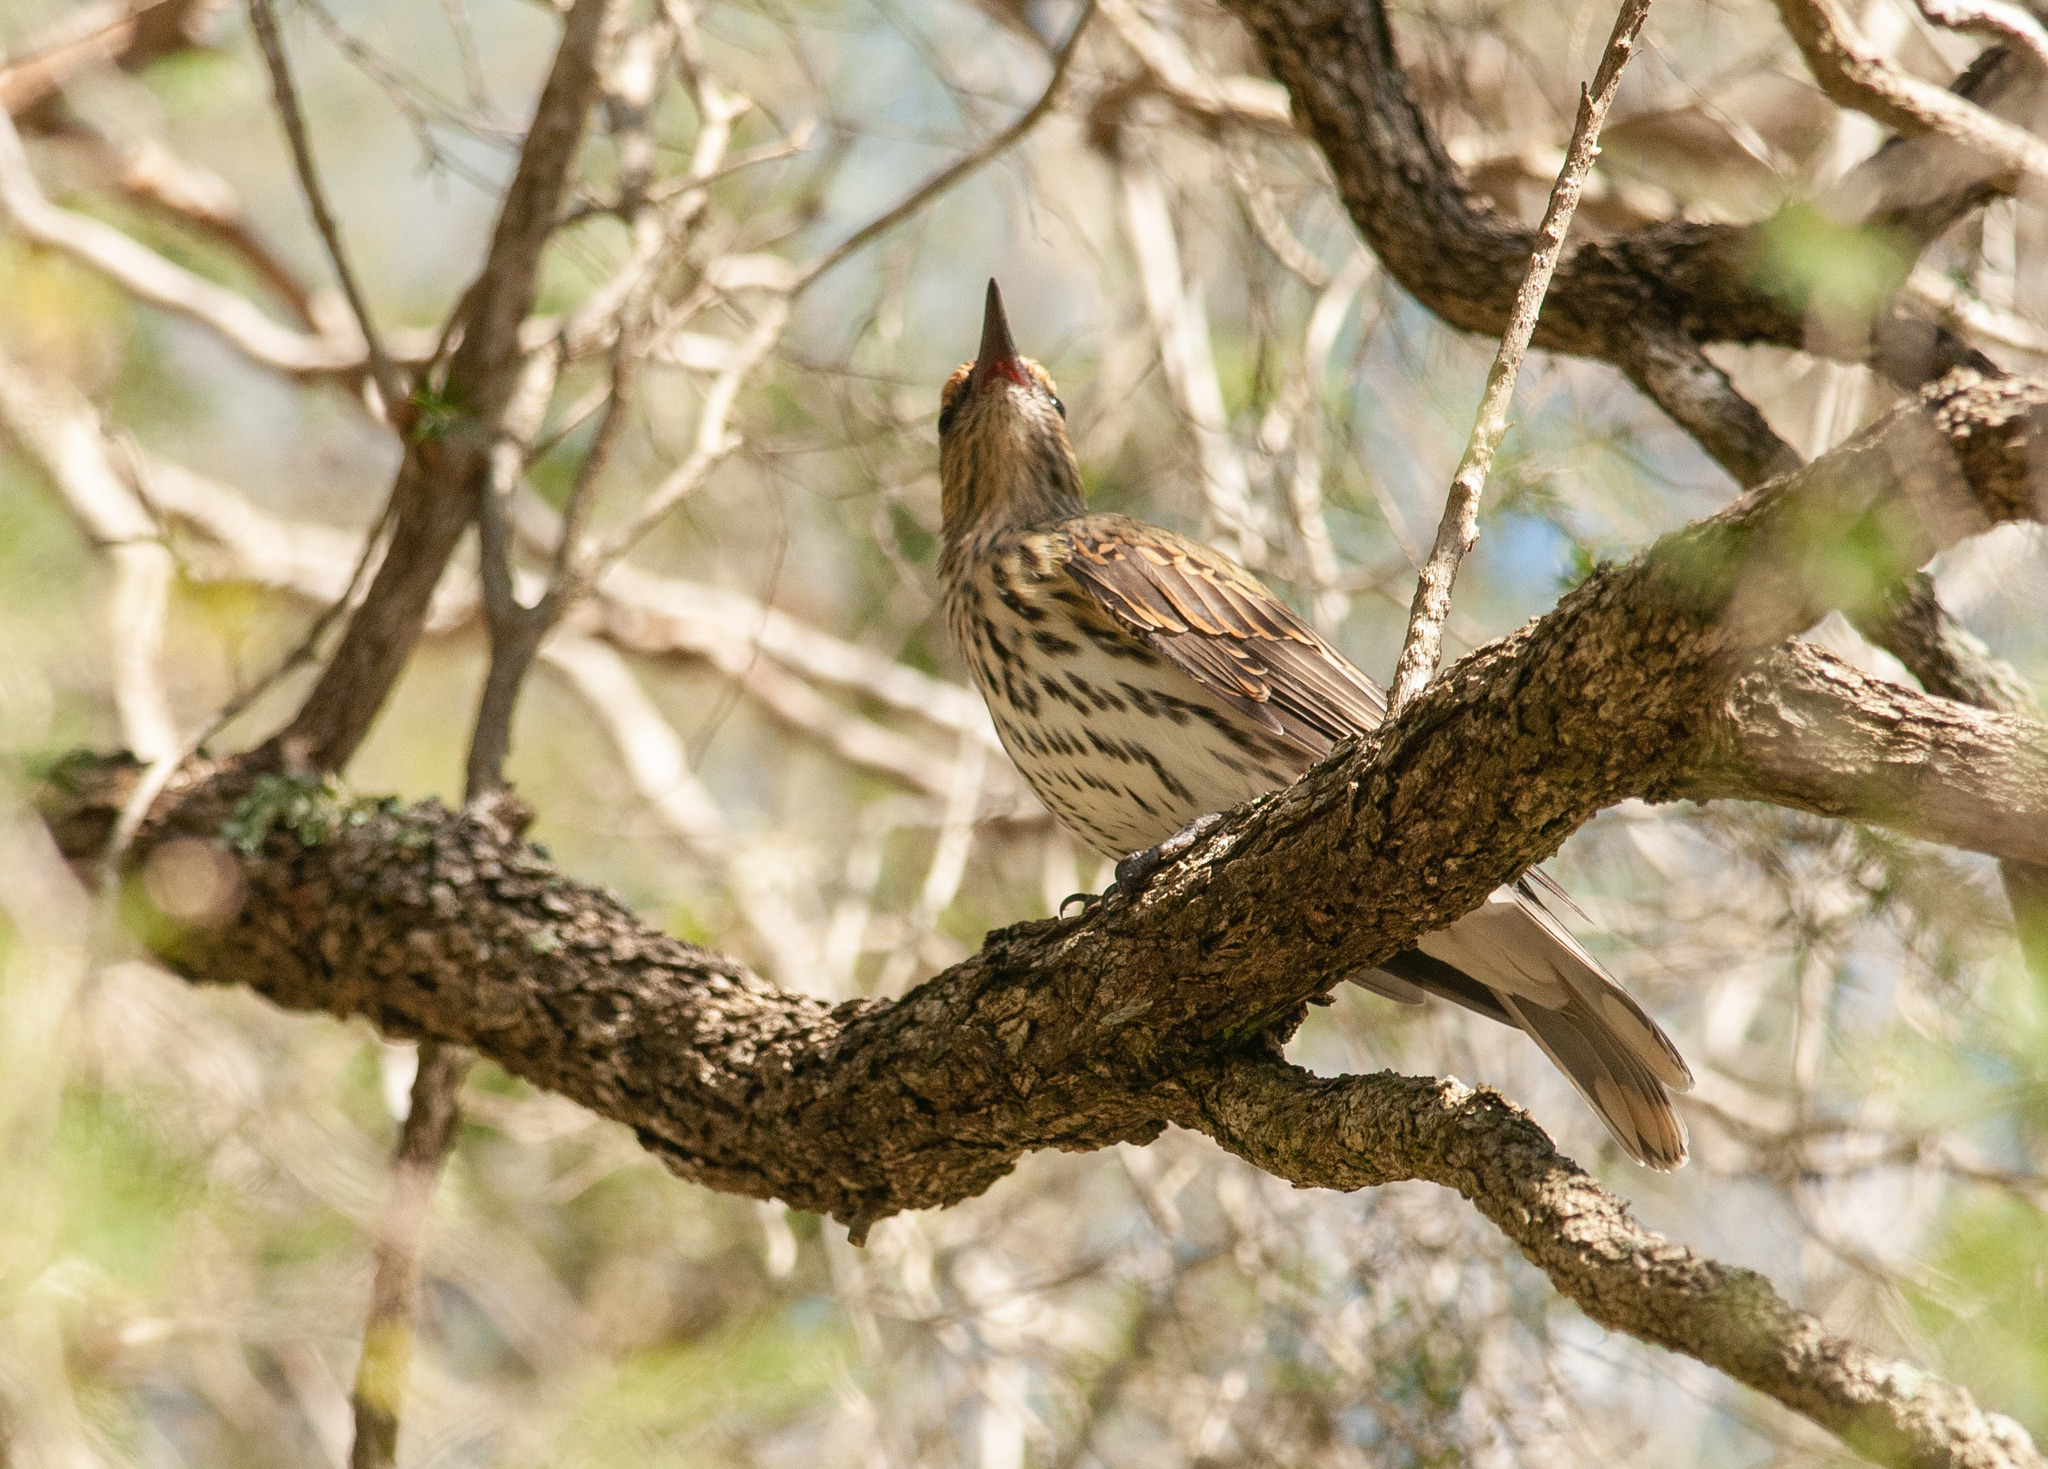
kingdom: Animalia
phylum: Chordata
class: Aves
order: Passeriformes
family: Oriolidae
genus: Oriolus
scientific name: Oriolus sagittatus
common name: Olive-backed oriole
